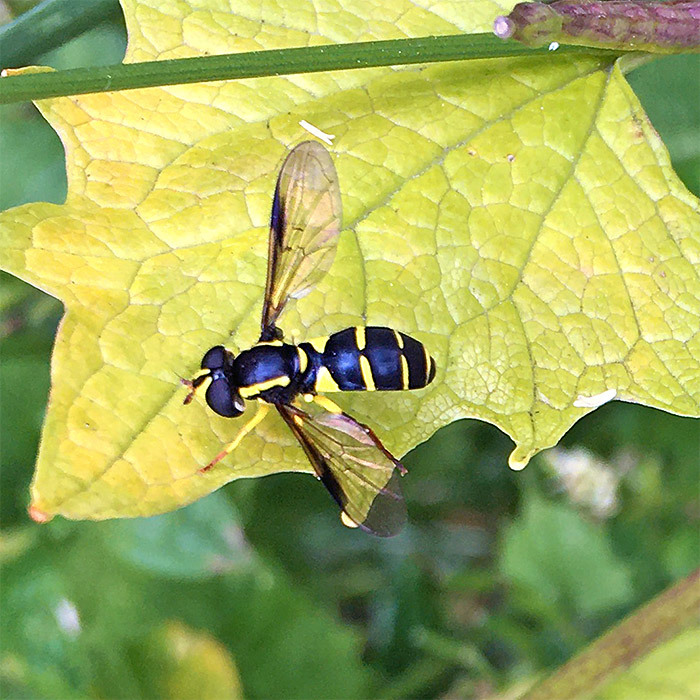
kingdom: Animalia
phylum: Arthropoda
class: Insecta
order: Diptera
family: Syrphidae
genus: Philhelius
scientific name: Philhelius pedissequum
